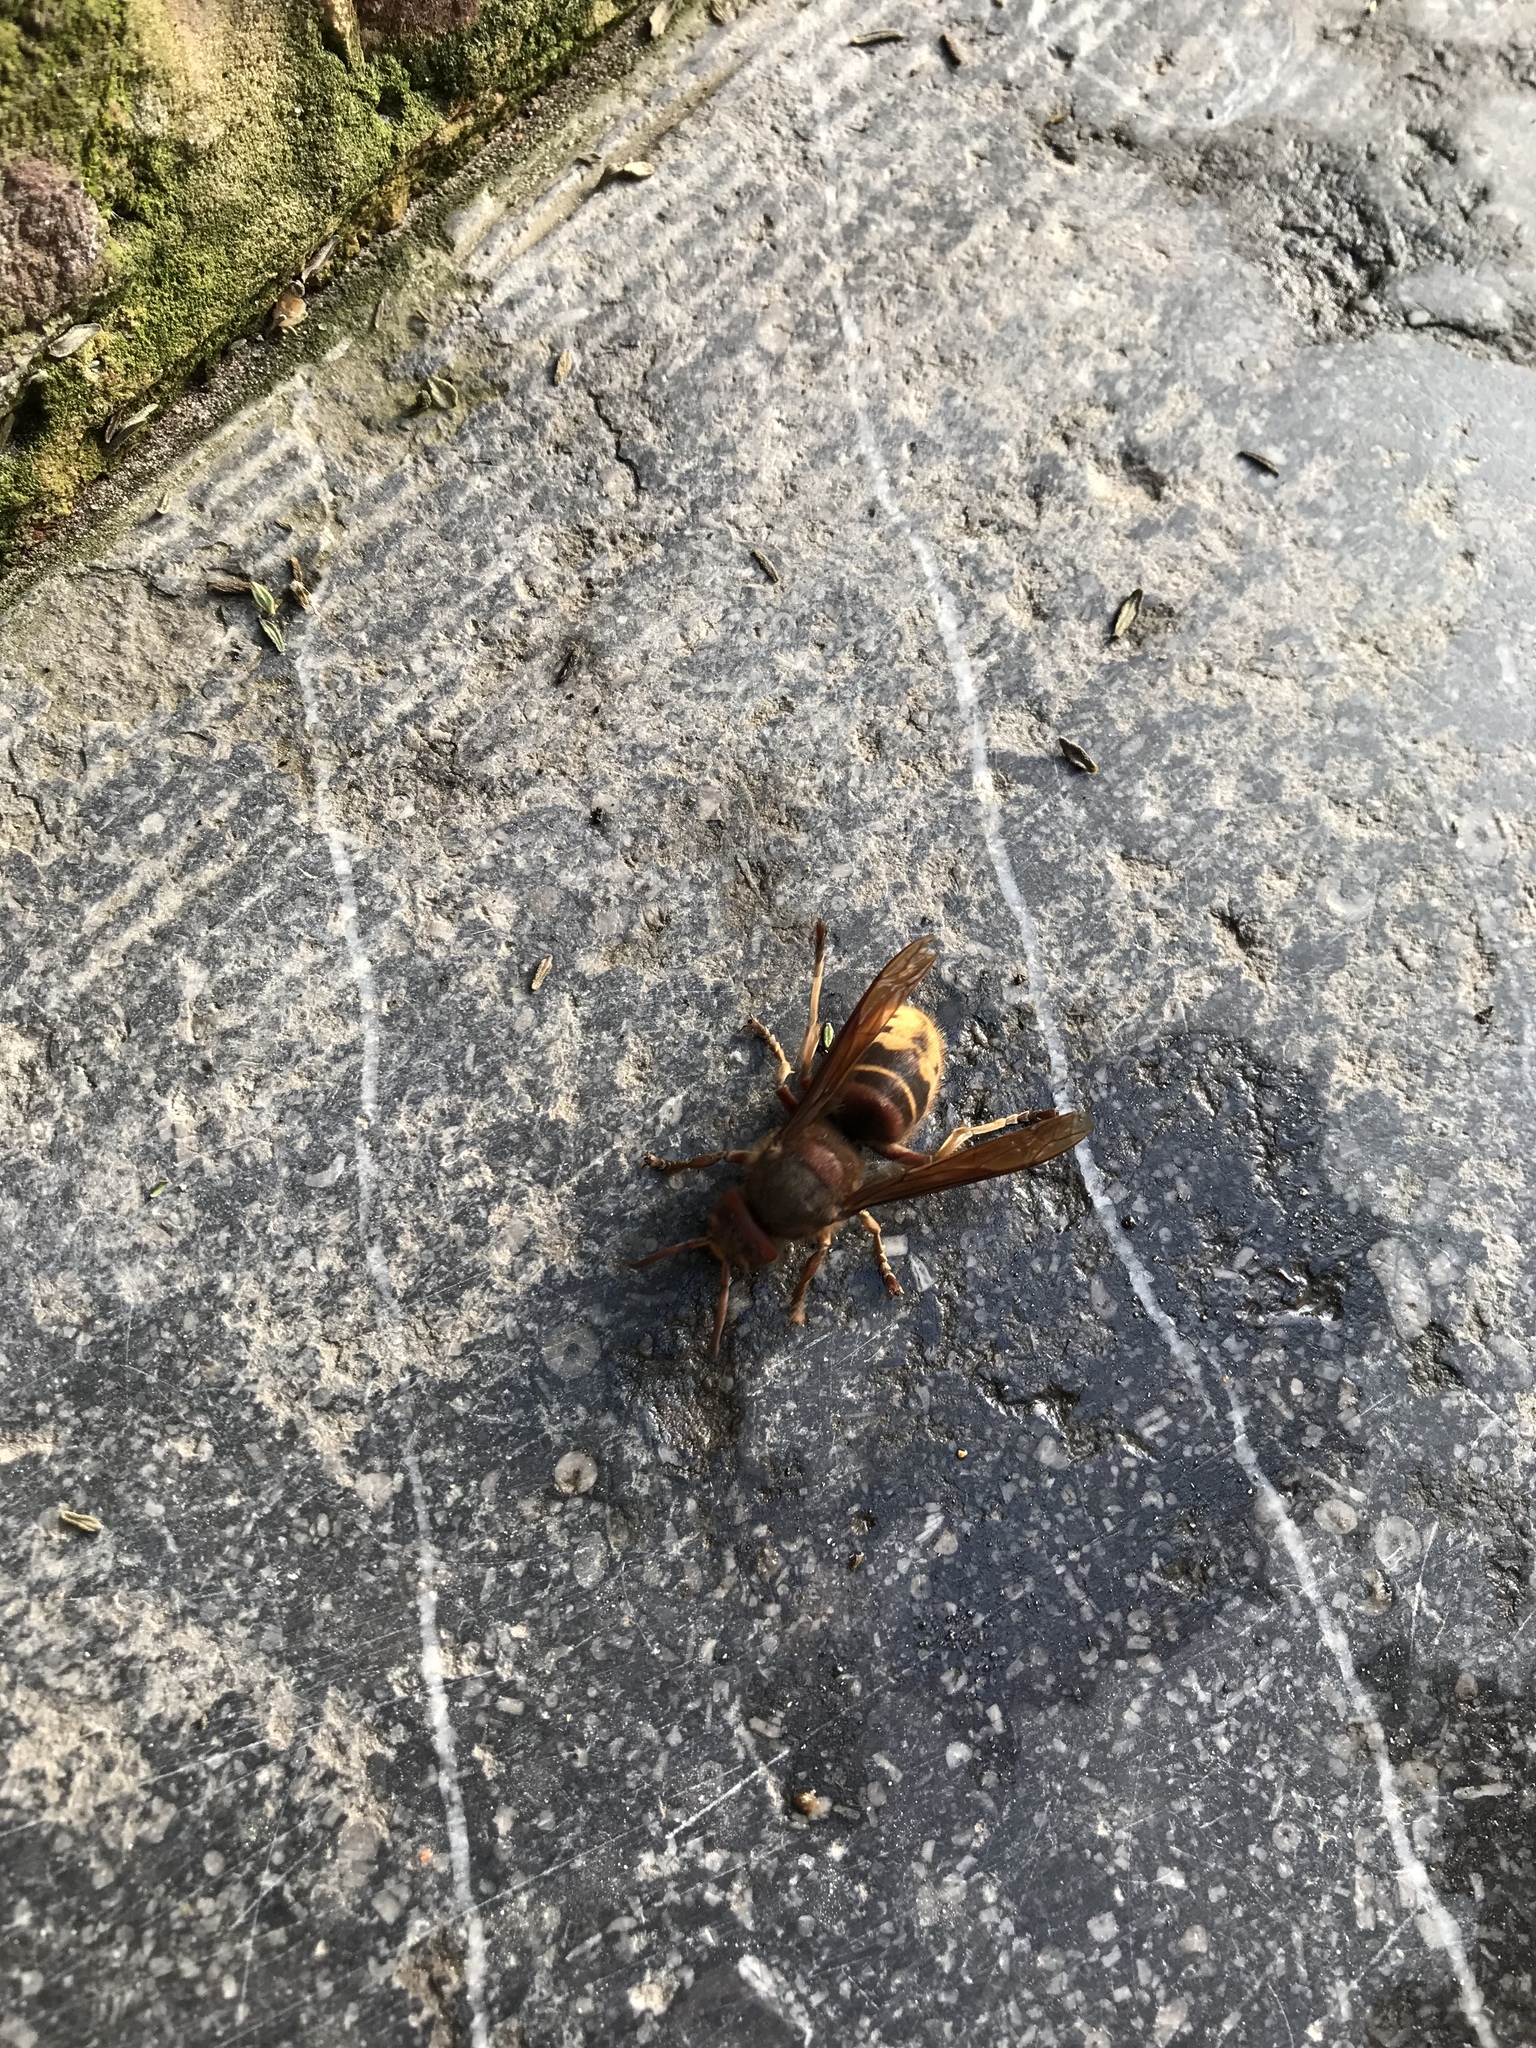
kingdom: Animalia
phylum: Arthropoda
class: Insecta
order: Hymenoptera
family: Vespidae
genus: Vespa
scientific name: Vespa crabro
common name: Hornet
